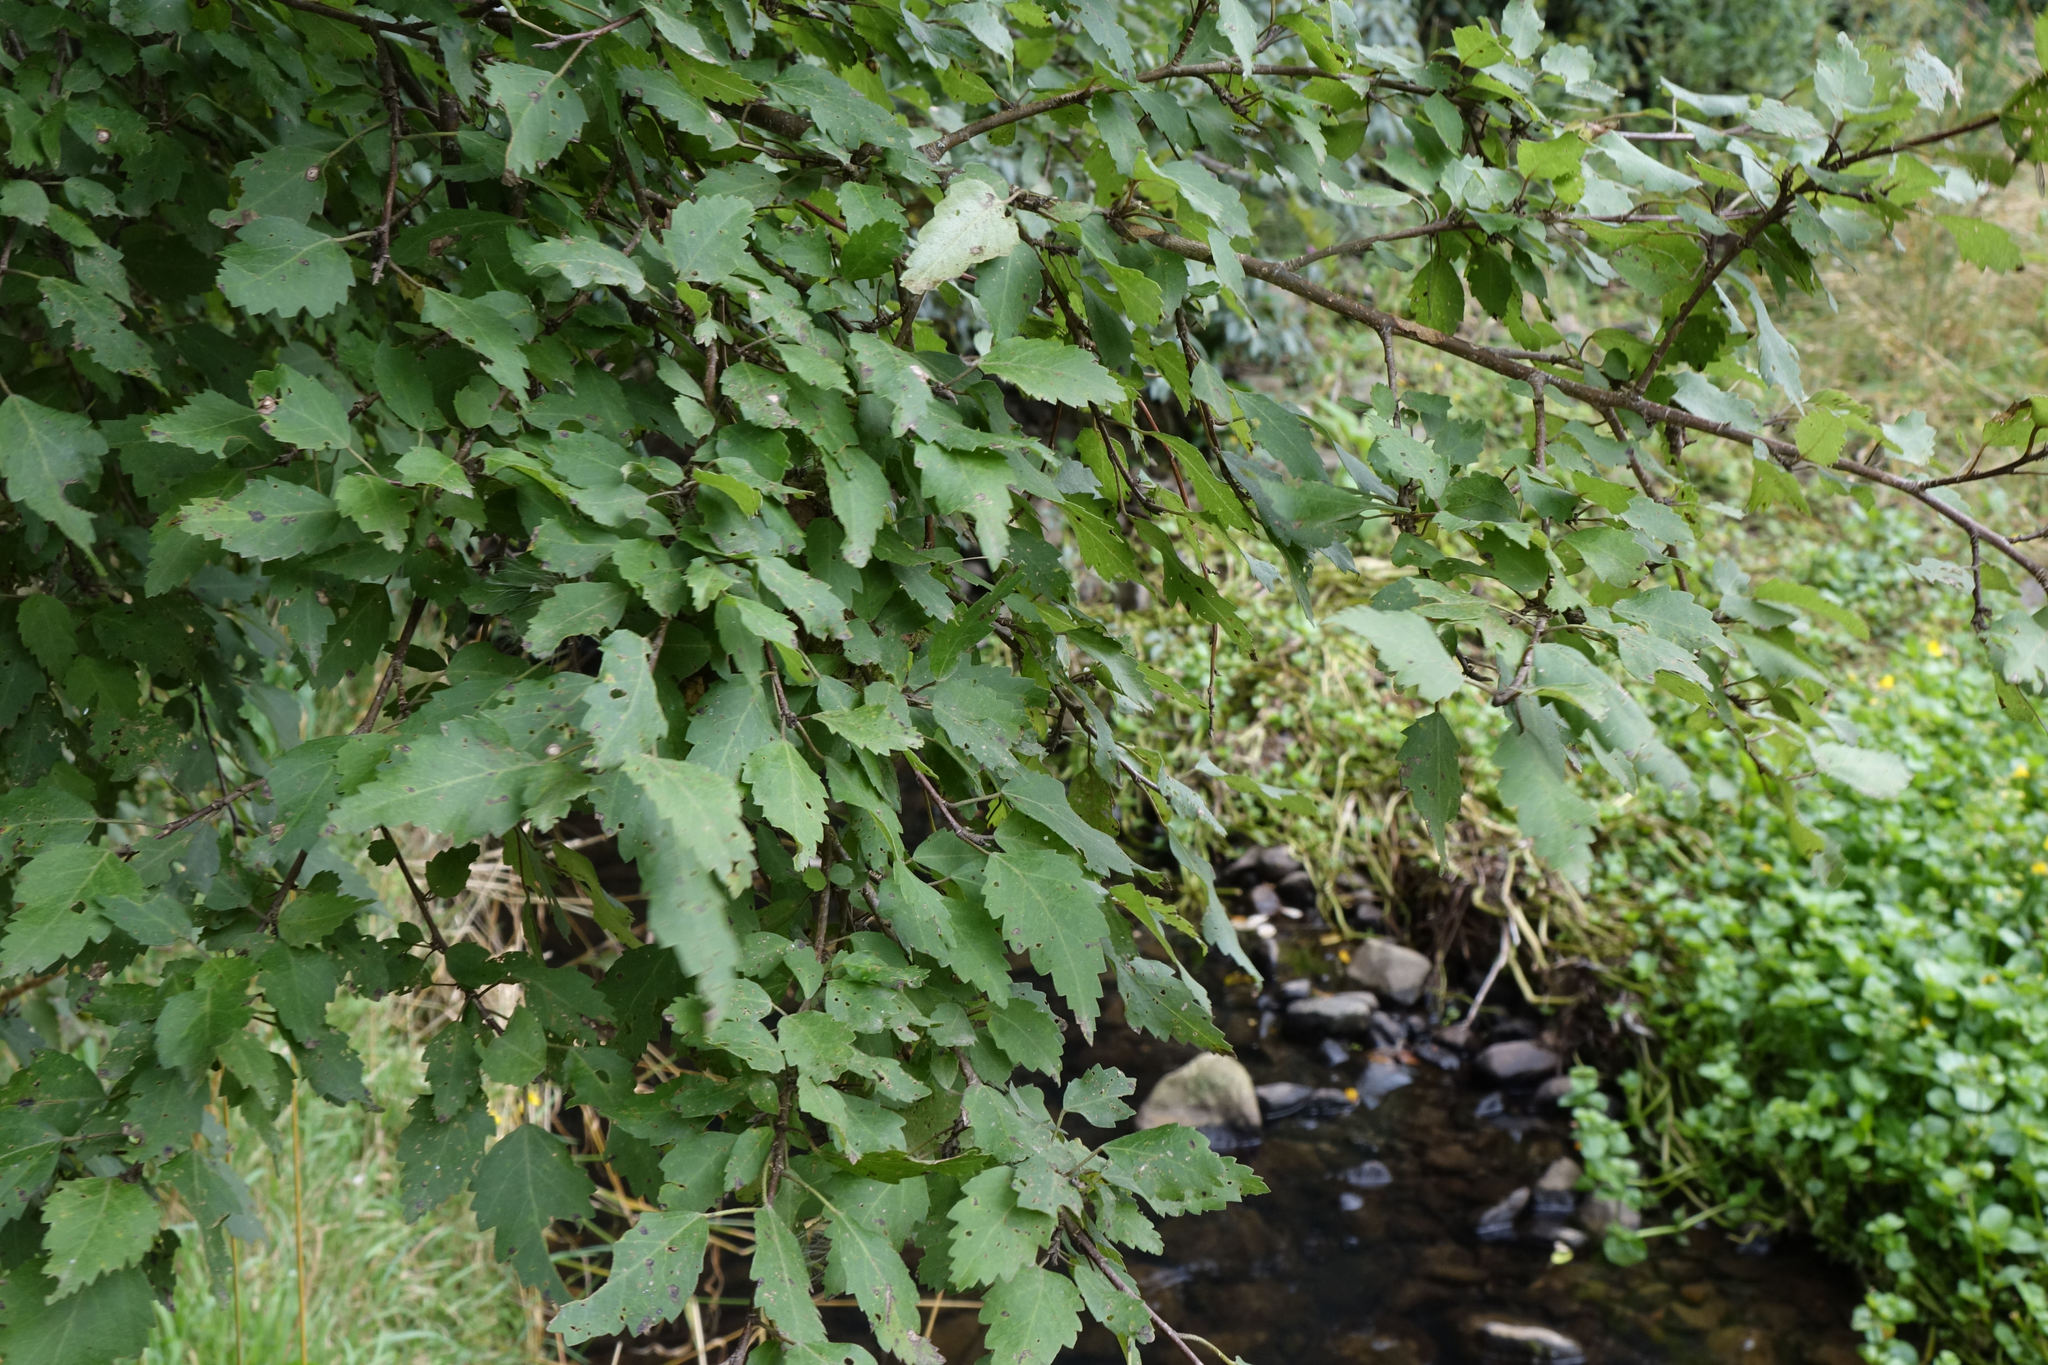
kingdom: Plantae
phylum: Tracheophyta
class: Magnoliopsida
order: Malvales
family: Malvaceae
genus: Plagianthus
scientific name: Plagianthus regius
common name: Manatu
